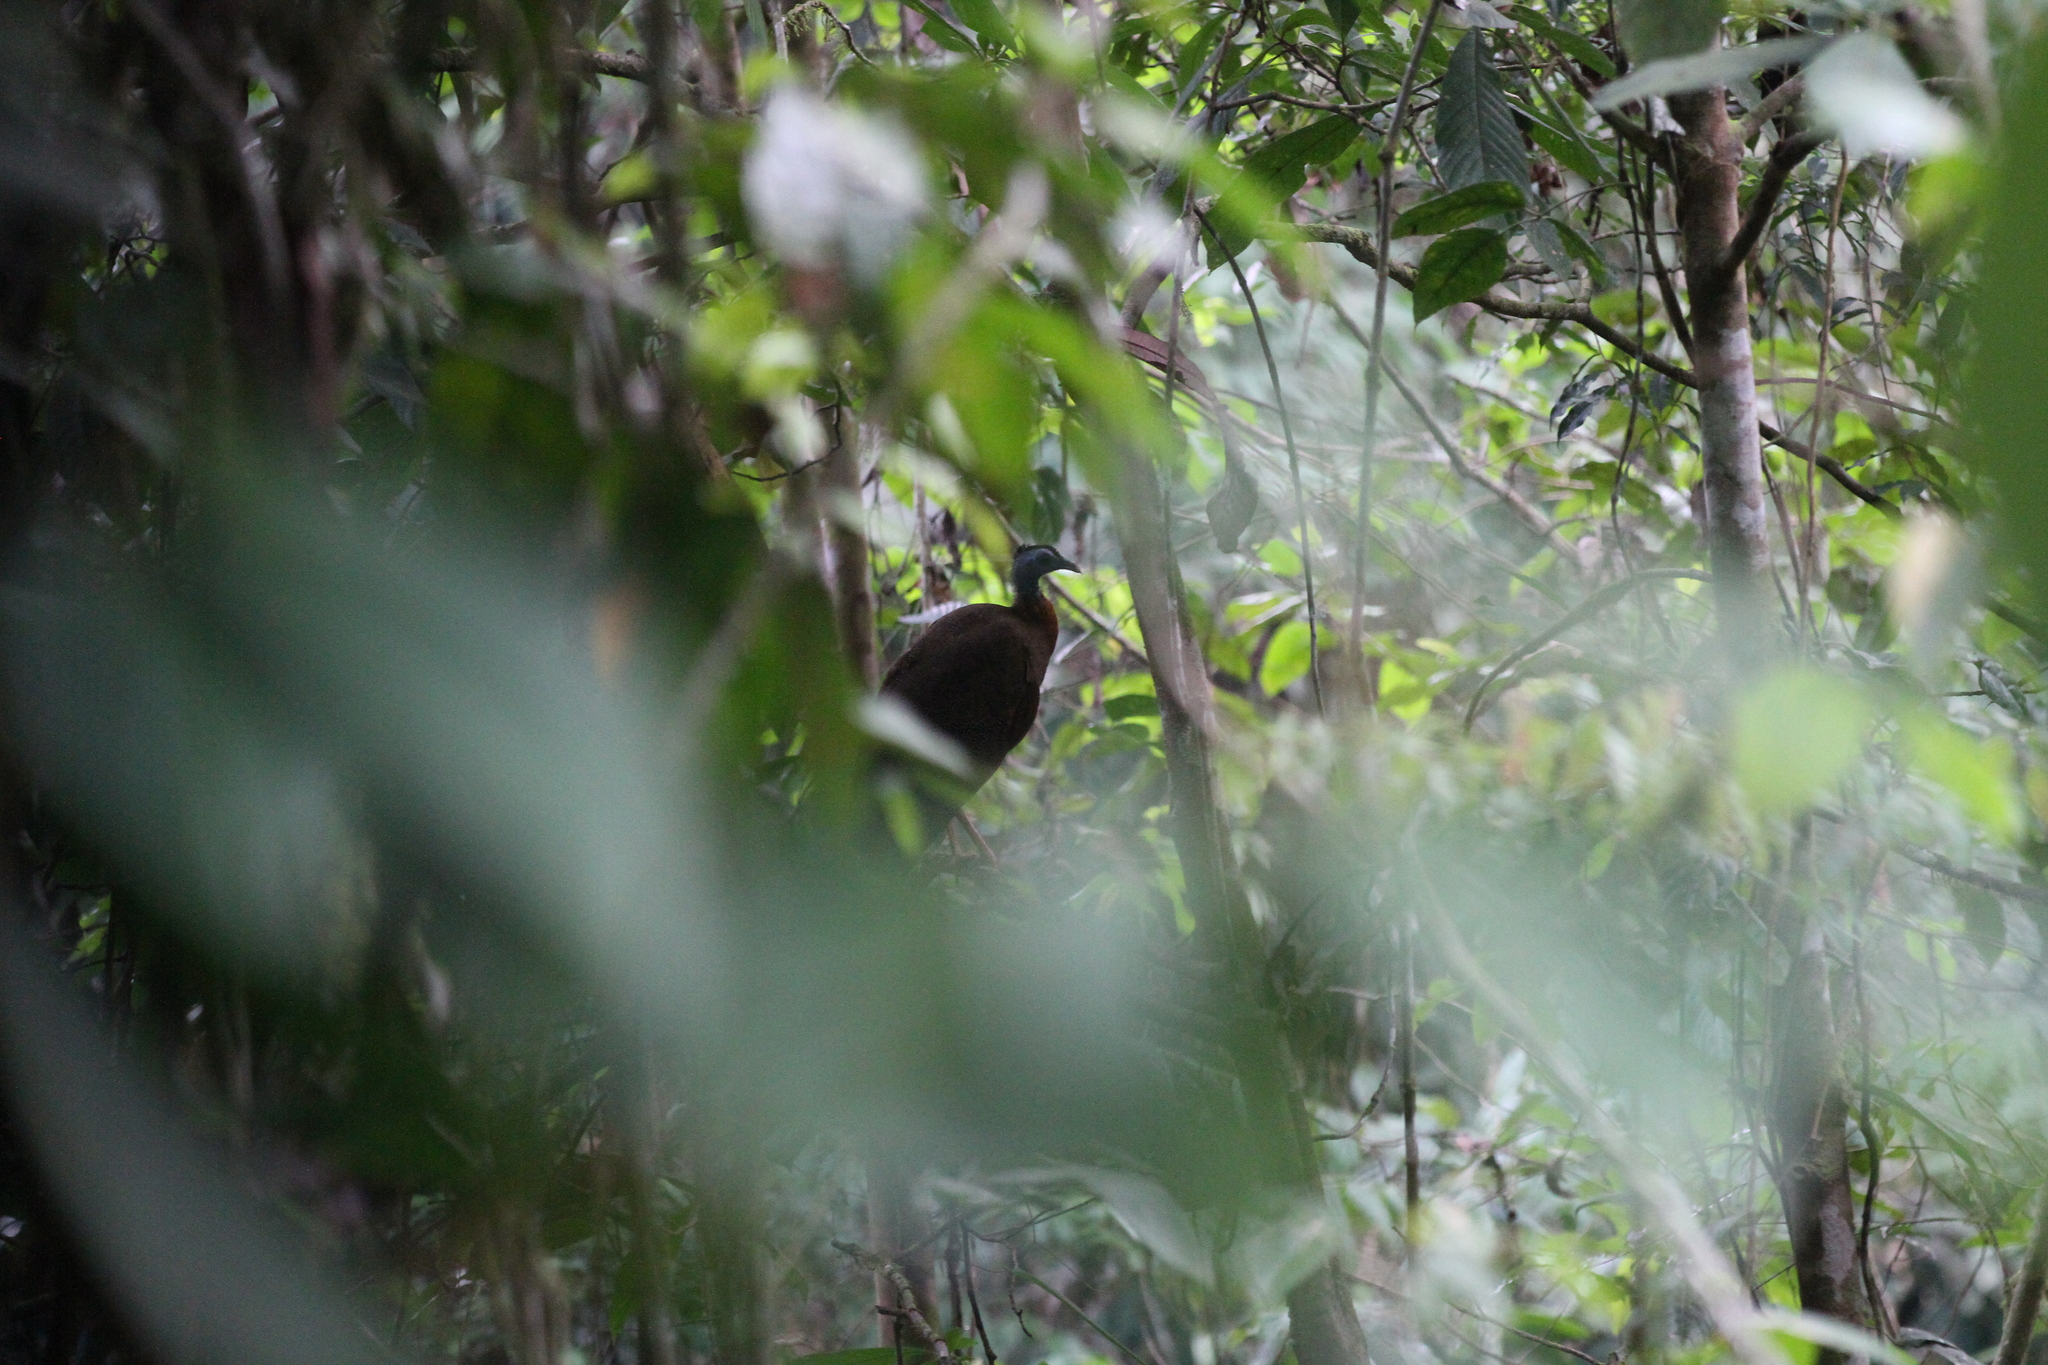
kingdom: Animalia
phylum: Chordata
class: Aves
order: Galliformes
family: Phasianidae
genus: Argusianus
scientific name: Argusianus argus
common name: Great argus
